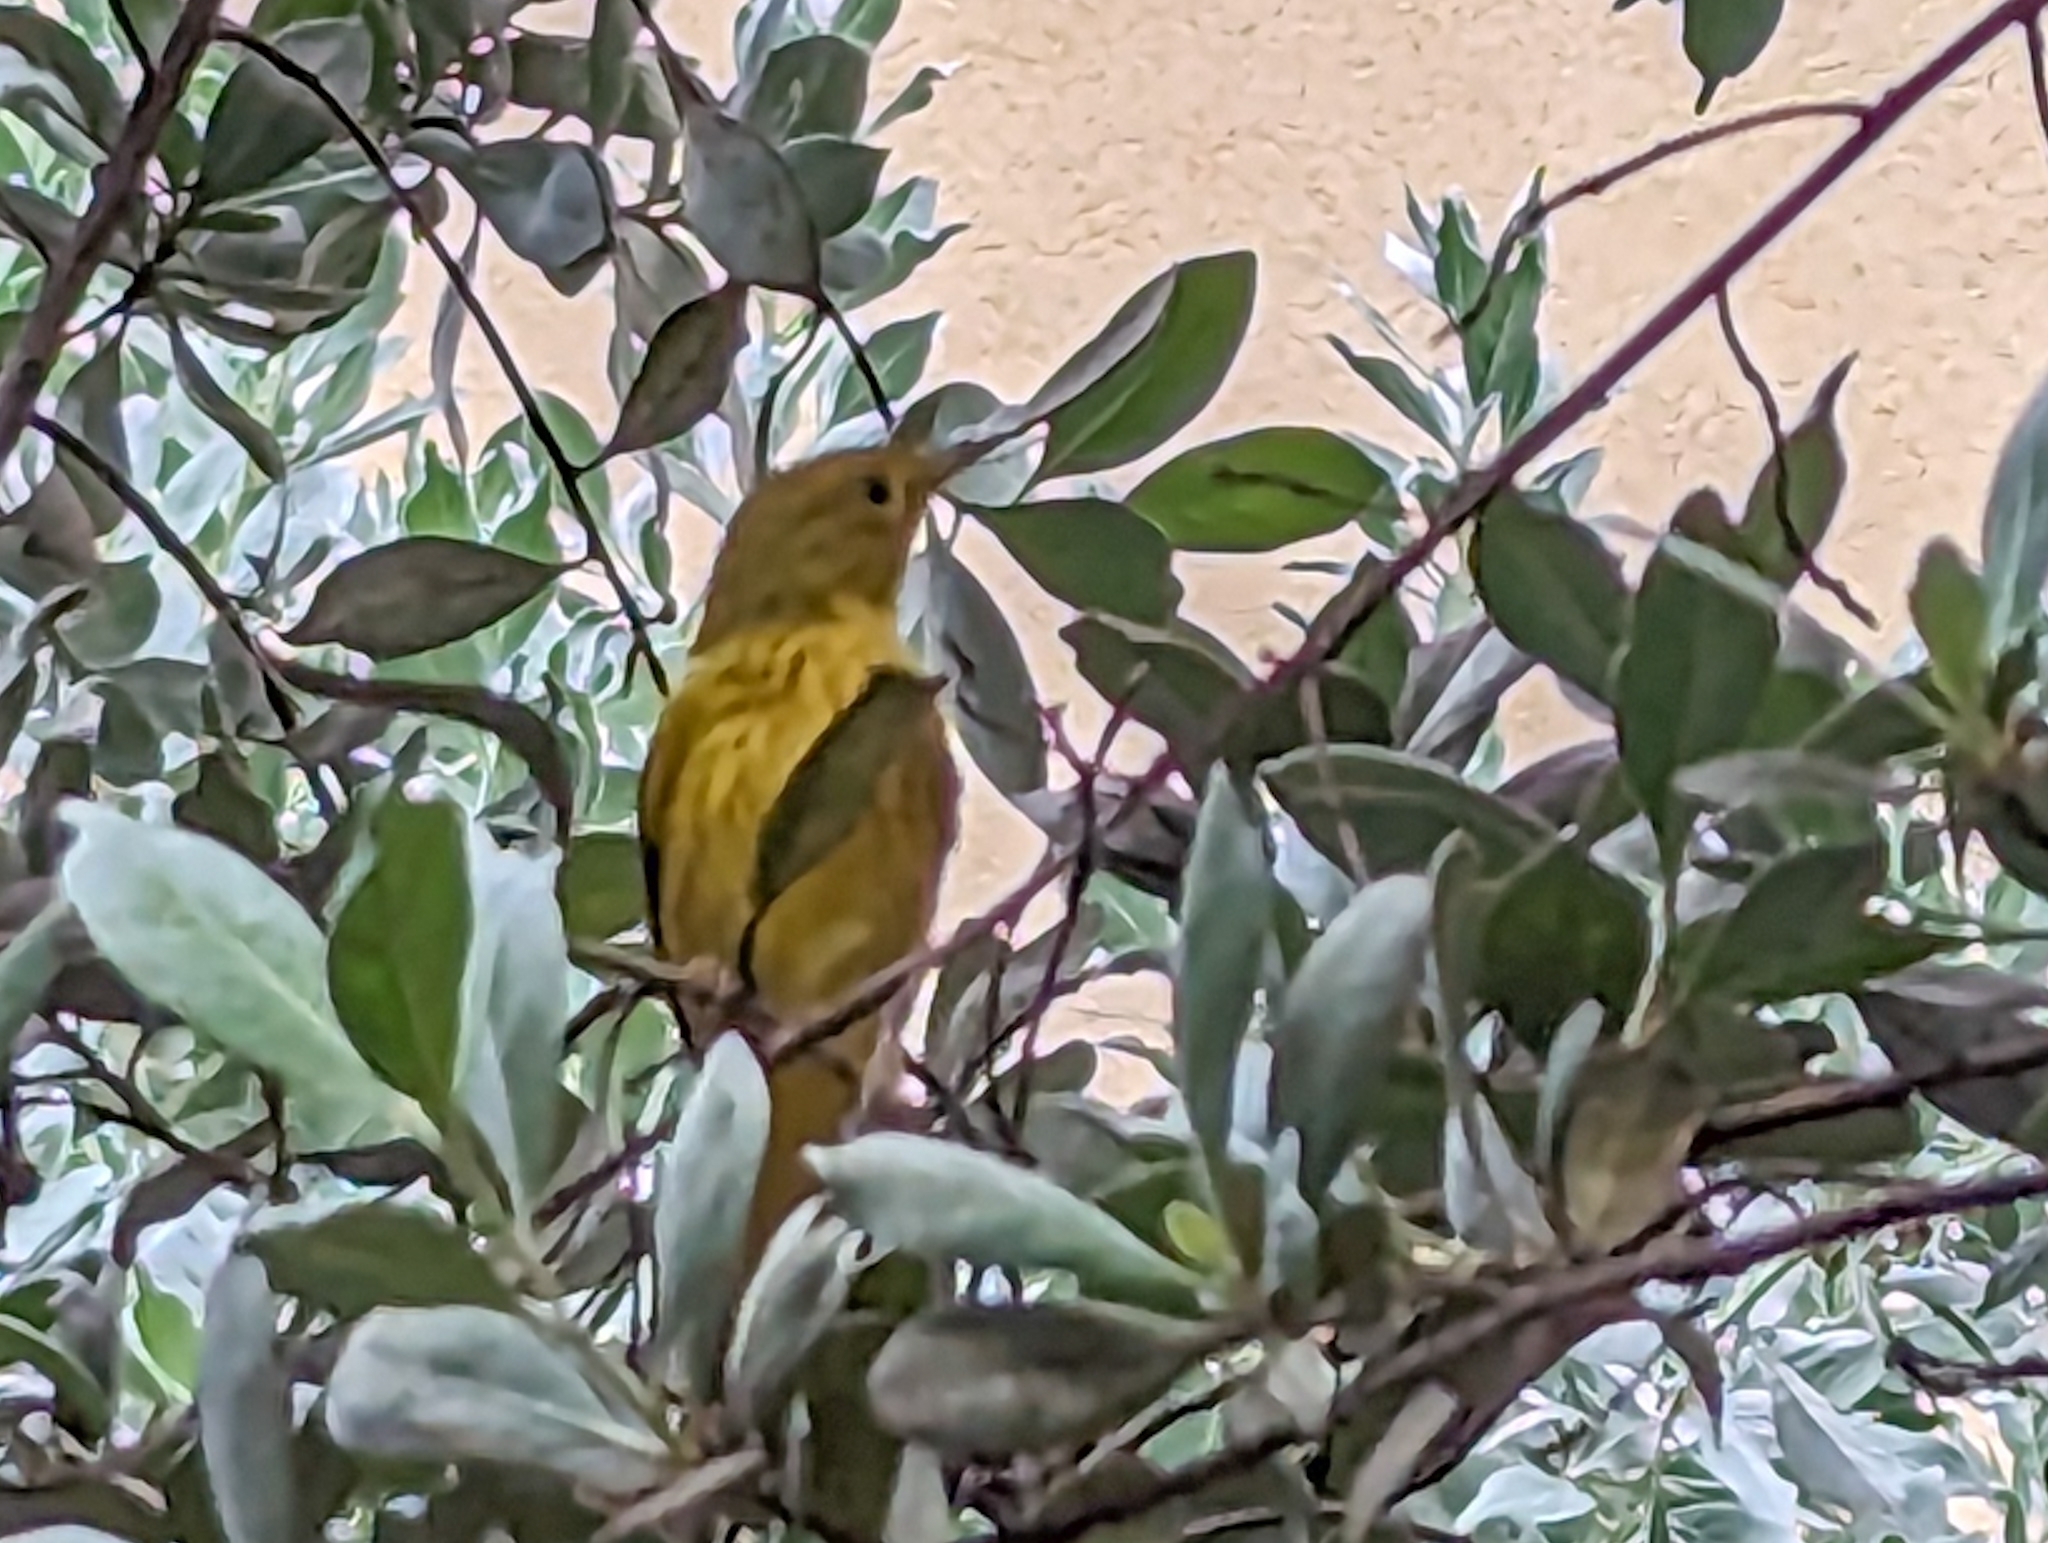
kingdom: Animalia
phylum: Chordata
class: Aves
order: Passeriformes
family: Parulidae
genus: Setophaga
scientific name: Setophaga petechia
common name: Yellow warbler
